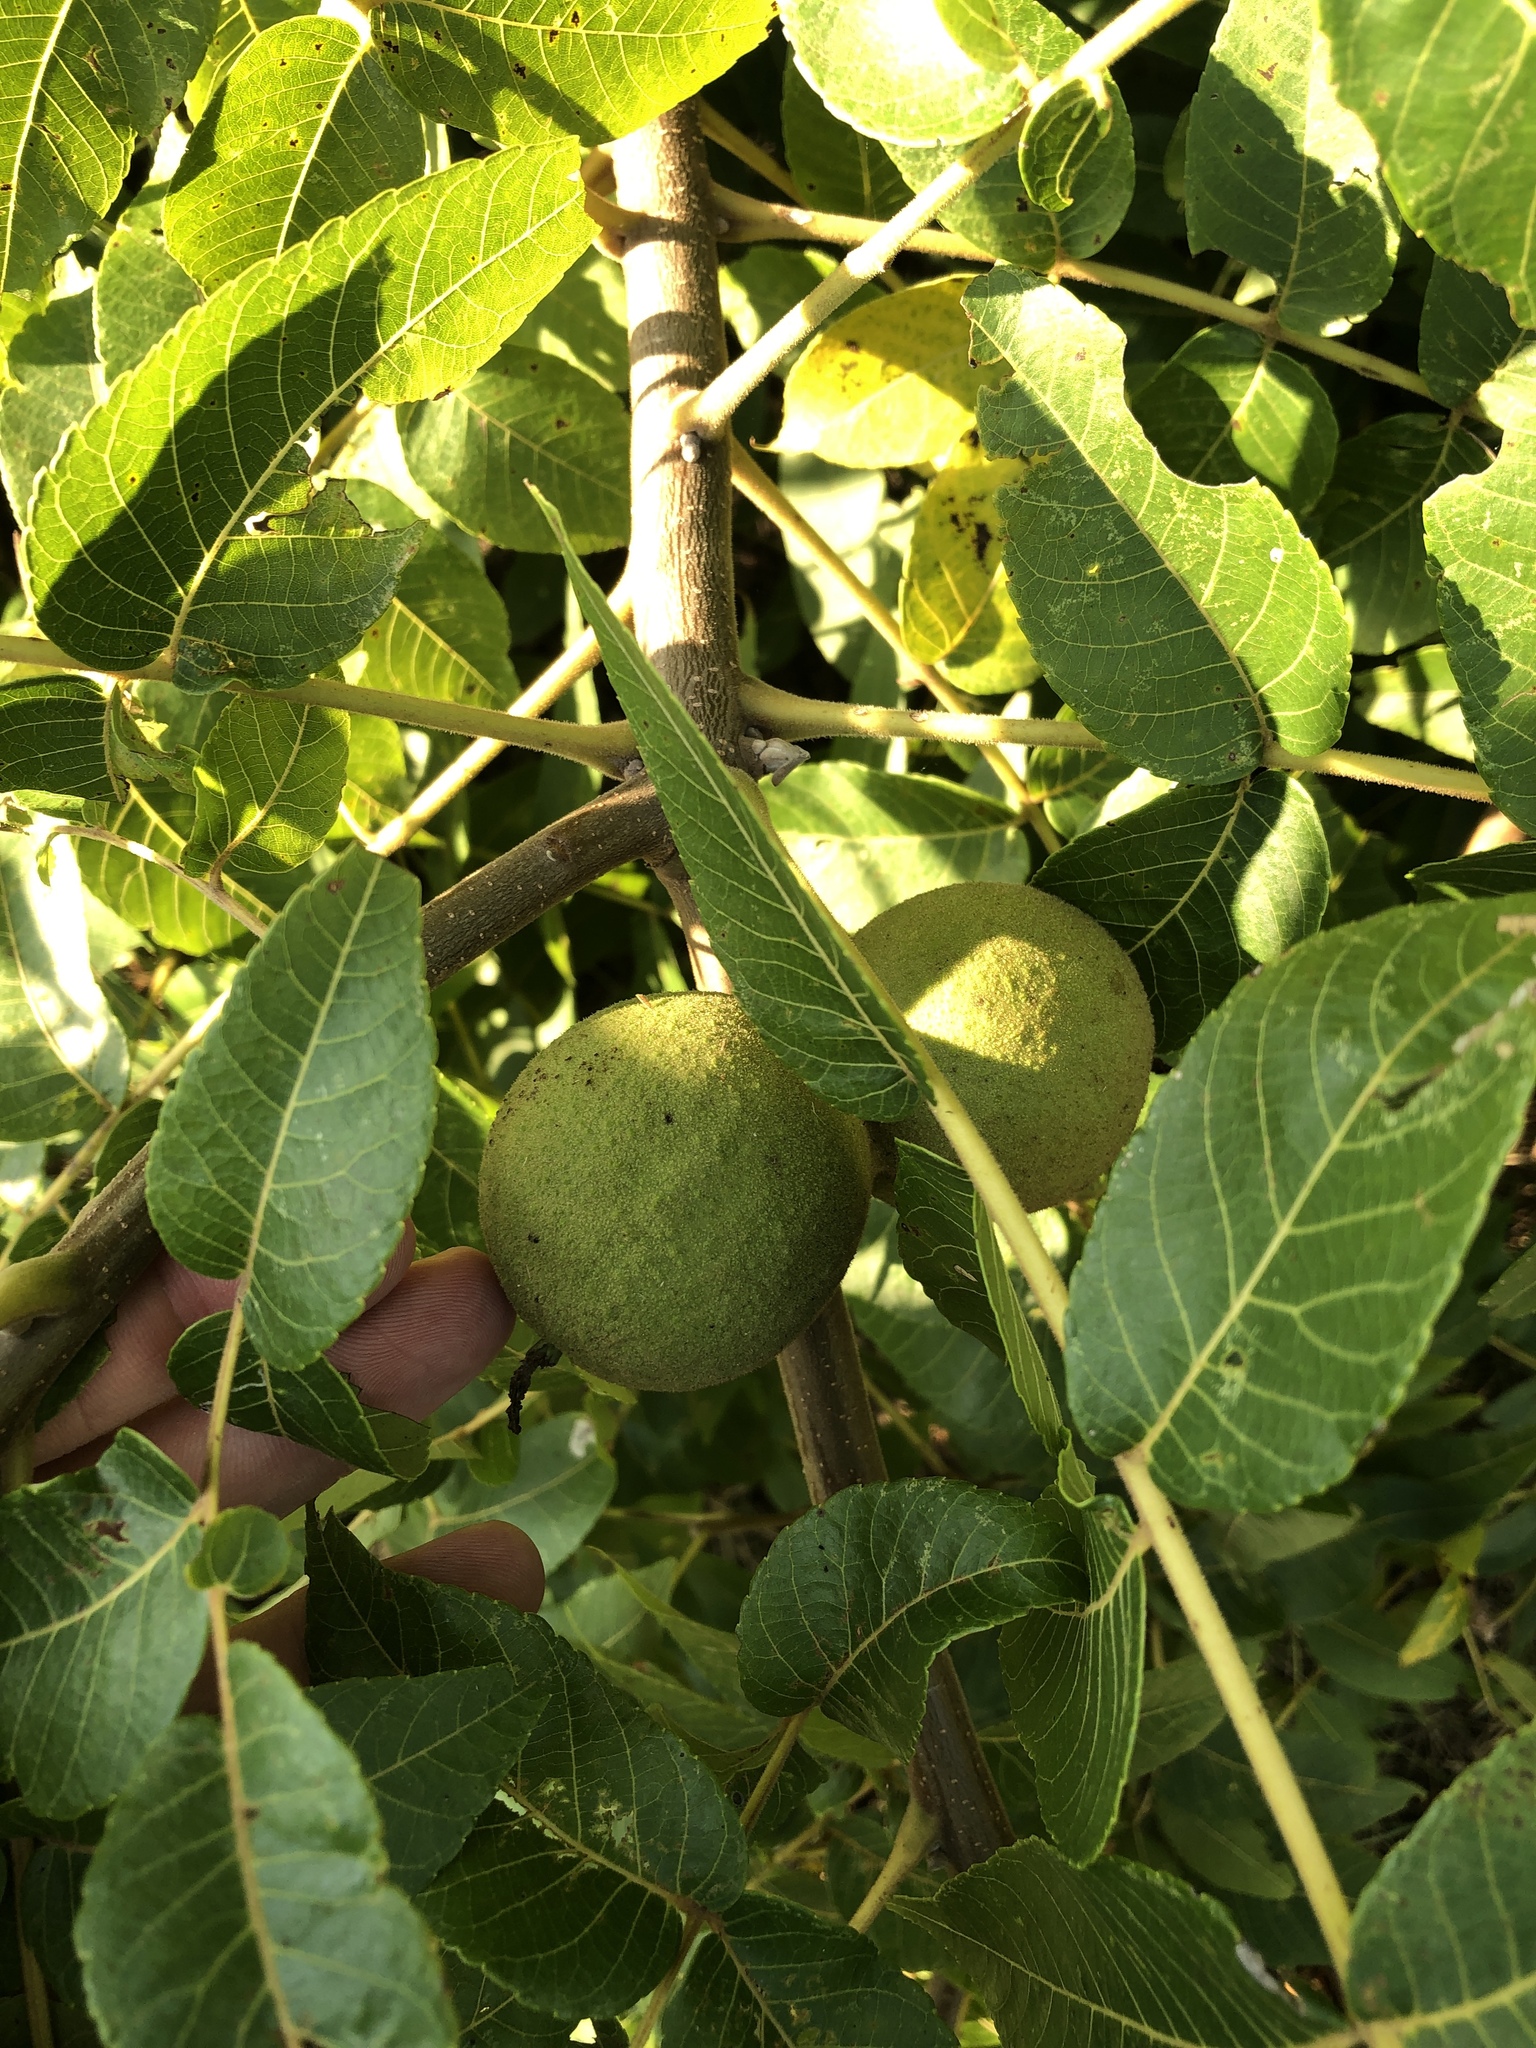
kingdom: Plantae
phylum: Tracheophyta
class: Magnoliopsida
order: Fagales
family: Juglandaceae
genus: Juglans
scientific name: Juglans nigra
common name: Black walnut
